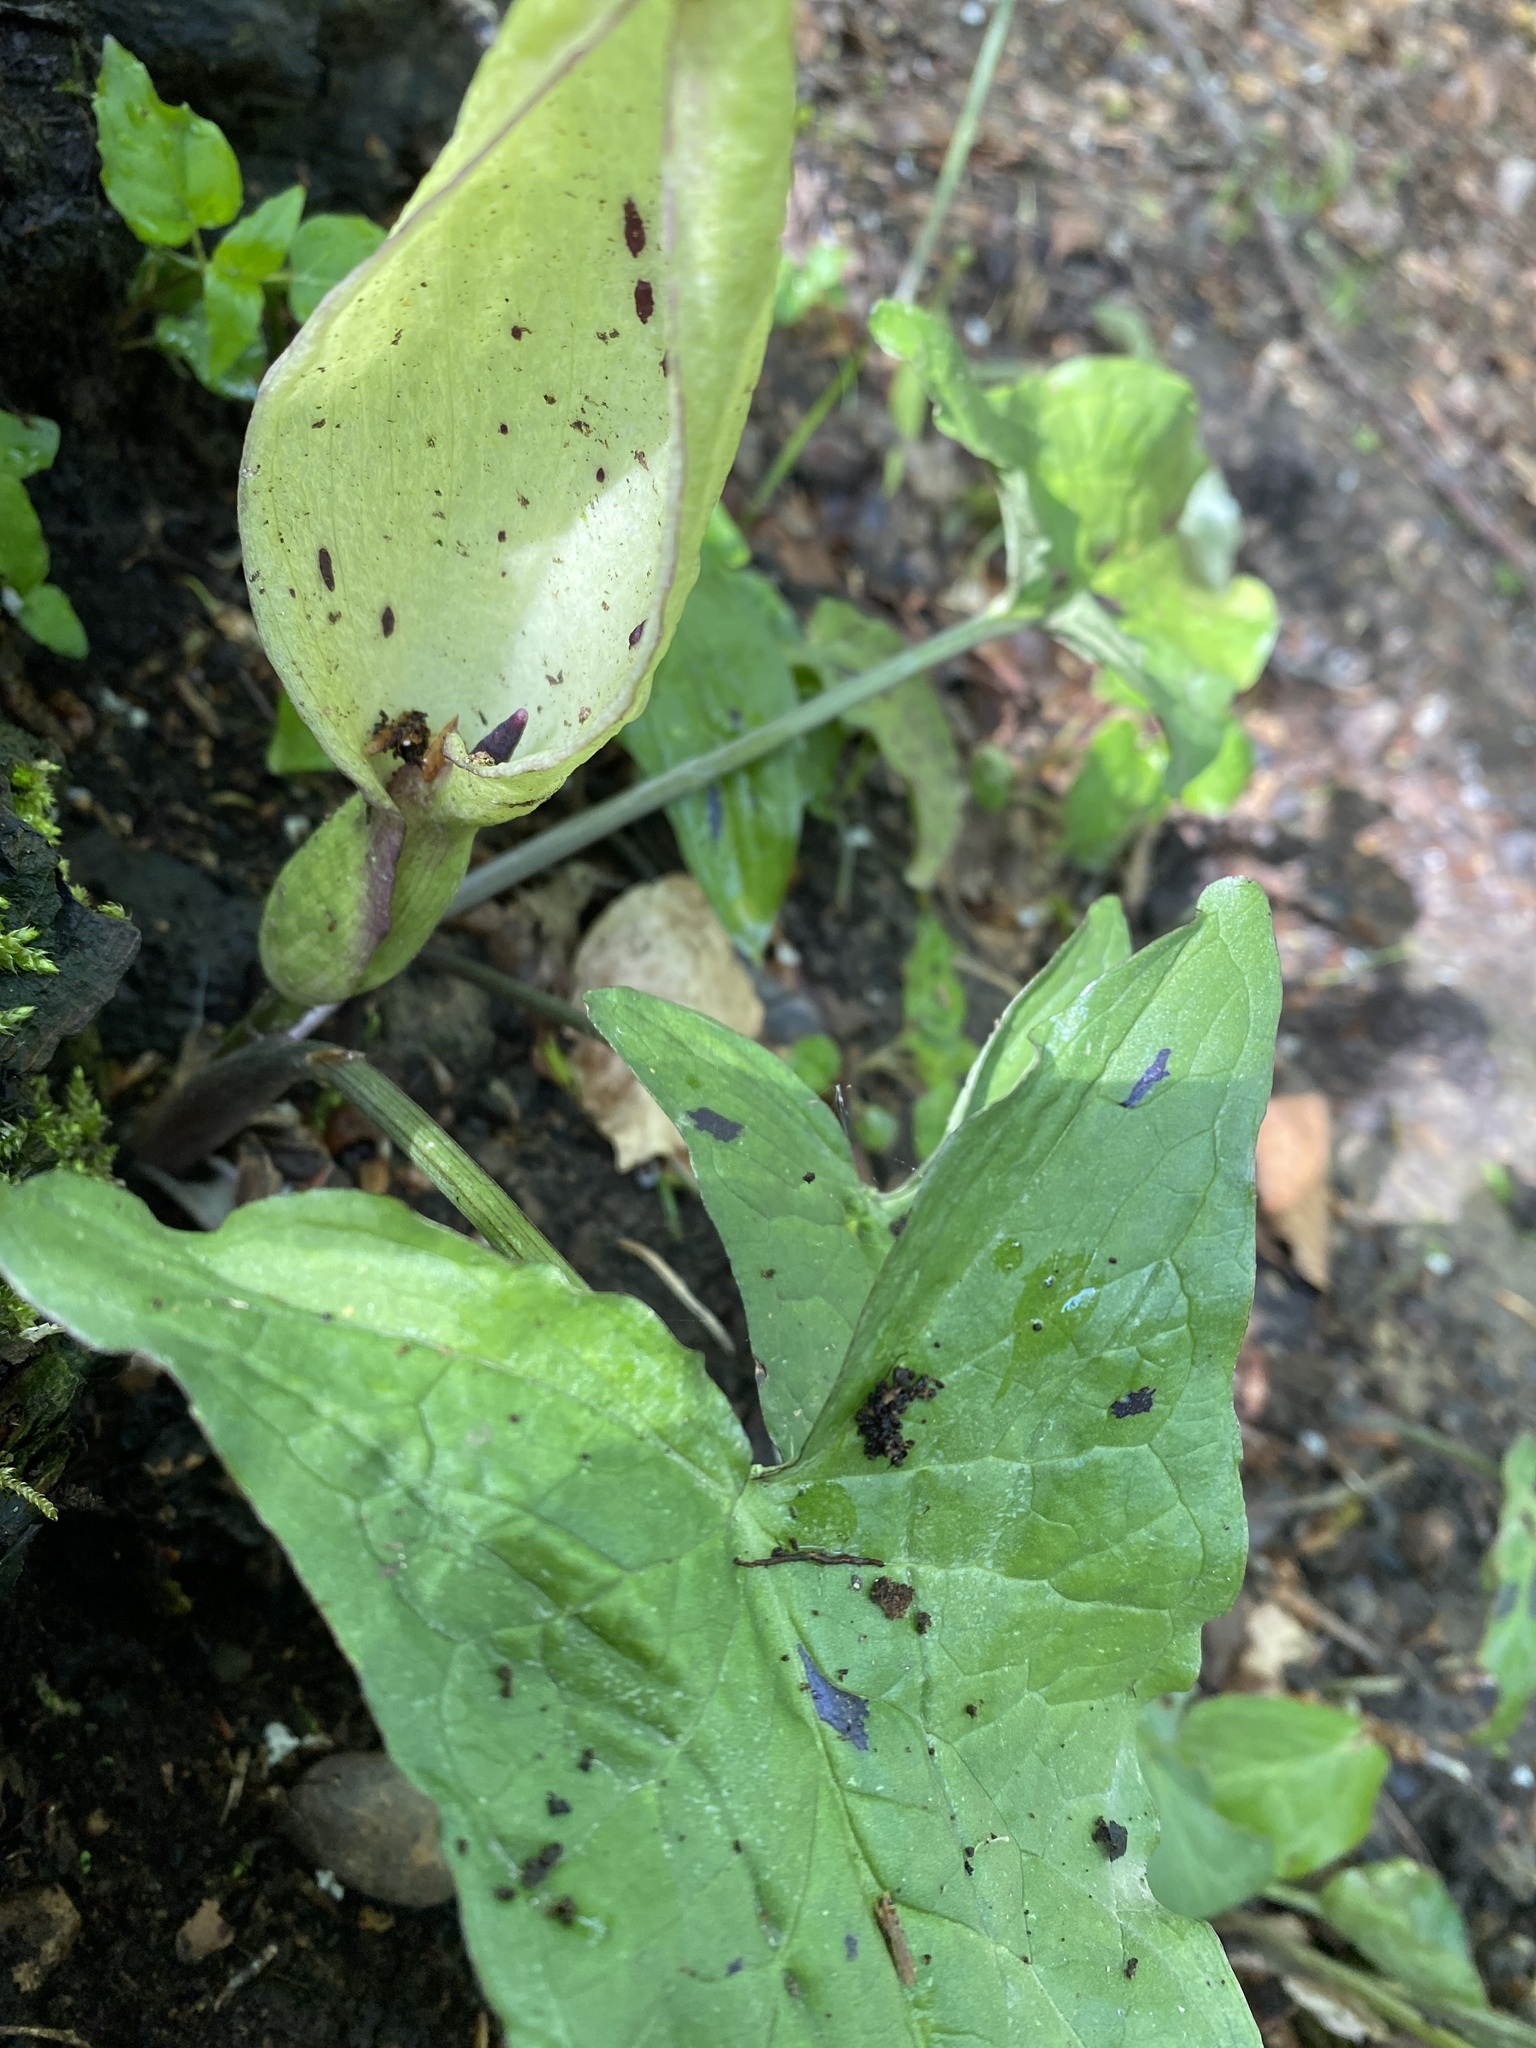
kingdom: Plantae
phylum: Tracheophyta
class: Liliopsida
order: Alismatales
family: Araceae
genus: Arum
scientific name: Arum maculatum
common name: Lords-and-ladies
